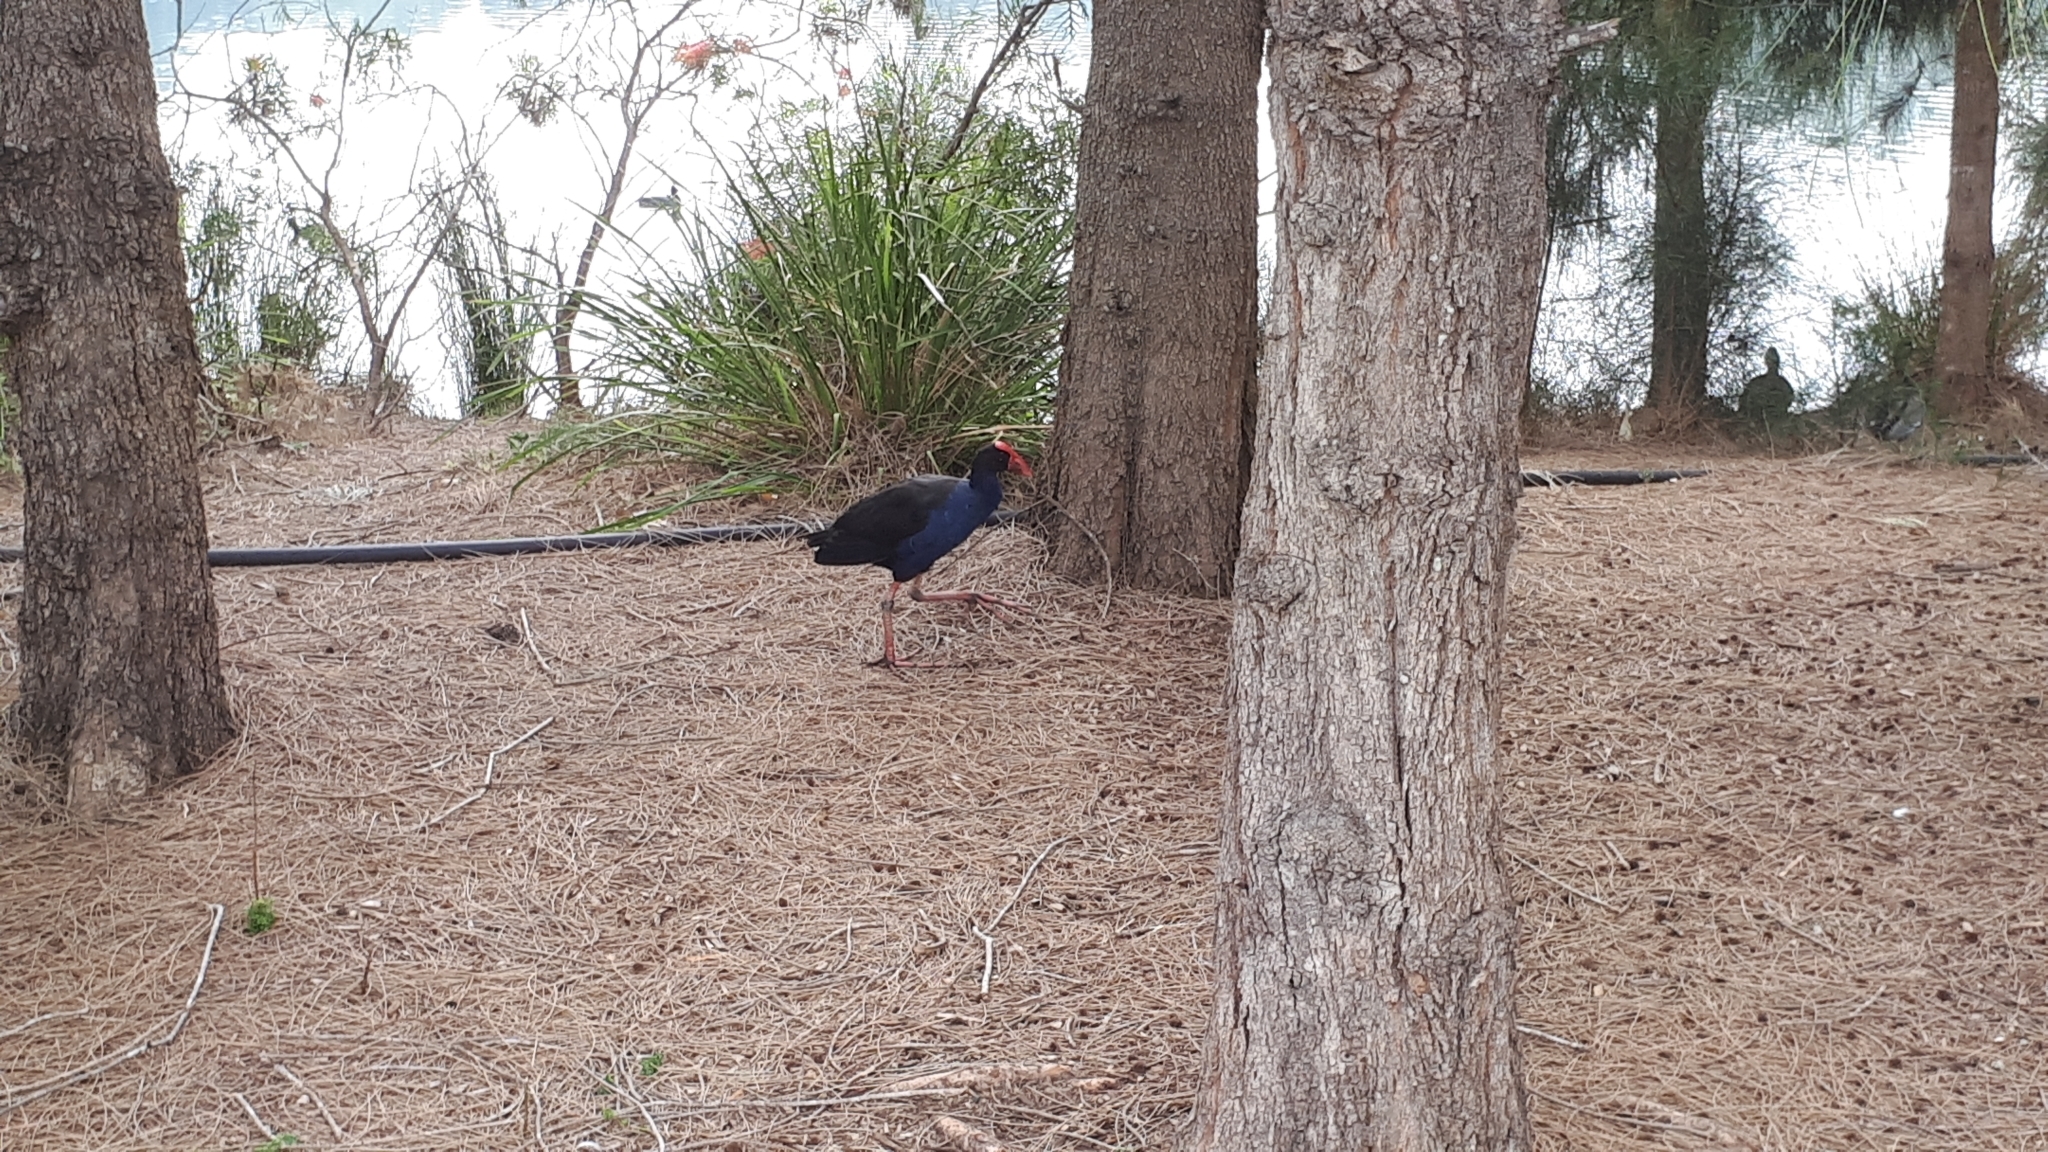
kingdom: Animalia
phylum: Chordata
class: Aves
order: Gruiformes
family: Rallidae
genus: Porphyrio
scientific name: Porphyrio melanotus
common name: Australasian swamphen
